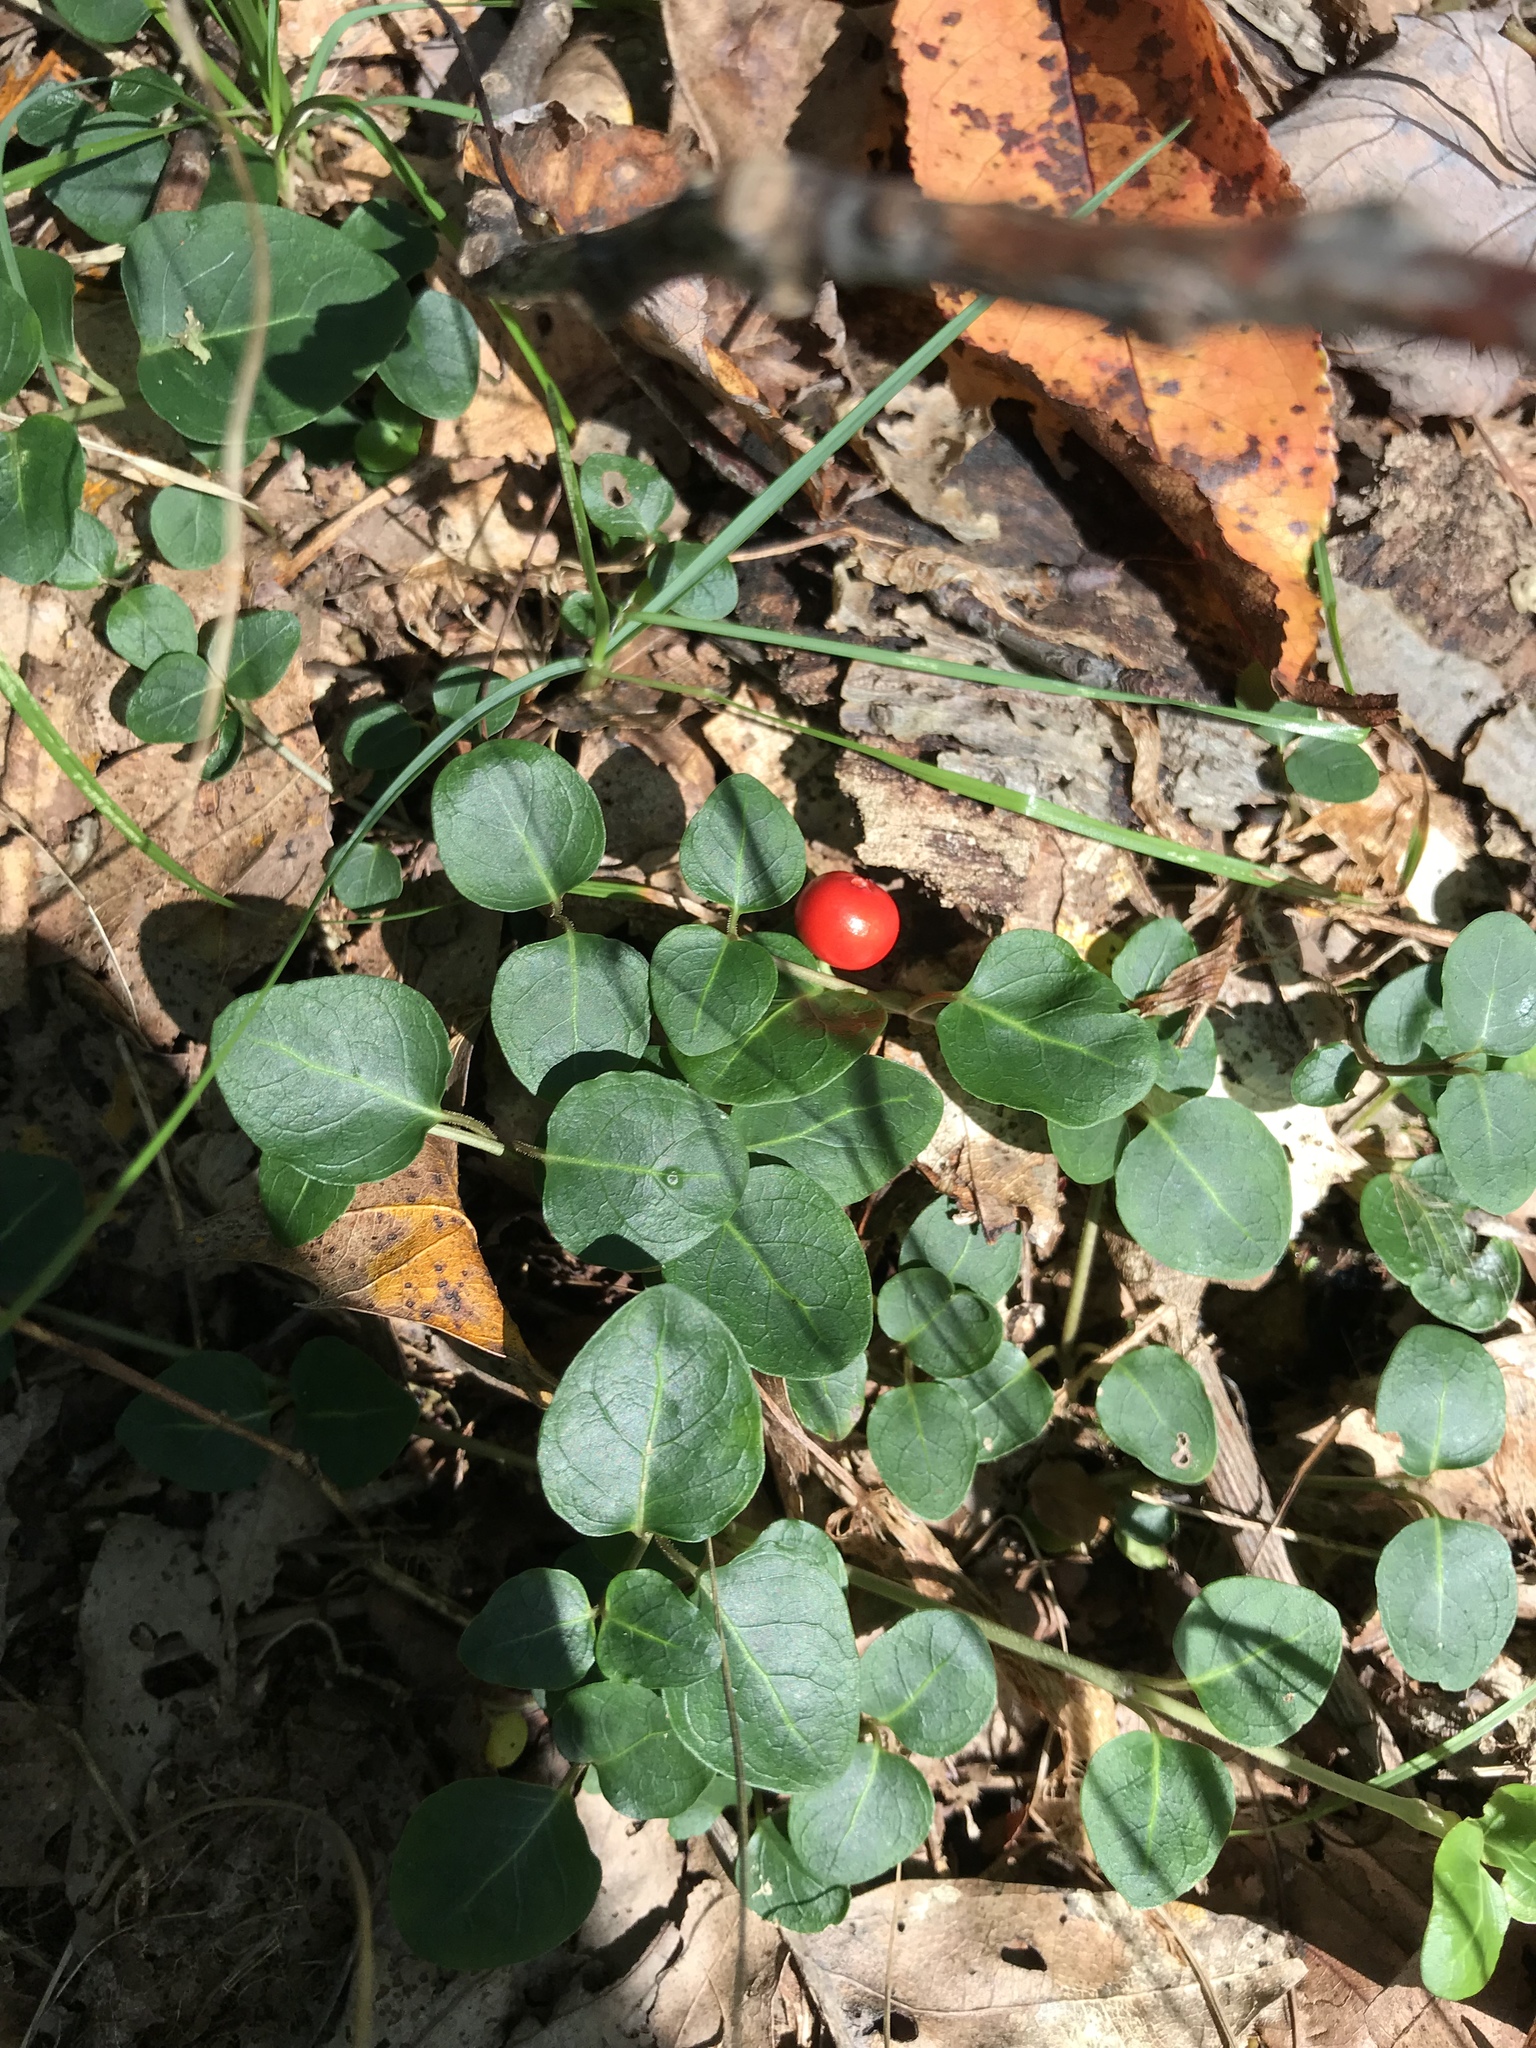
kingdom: Plantae
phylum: Tracheophyta
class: Magnoliopsida
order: Gentianales
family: Rubiaceae
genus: Mitchella
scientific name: Mitchella repens
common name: Partridge-berry
